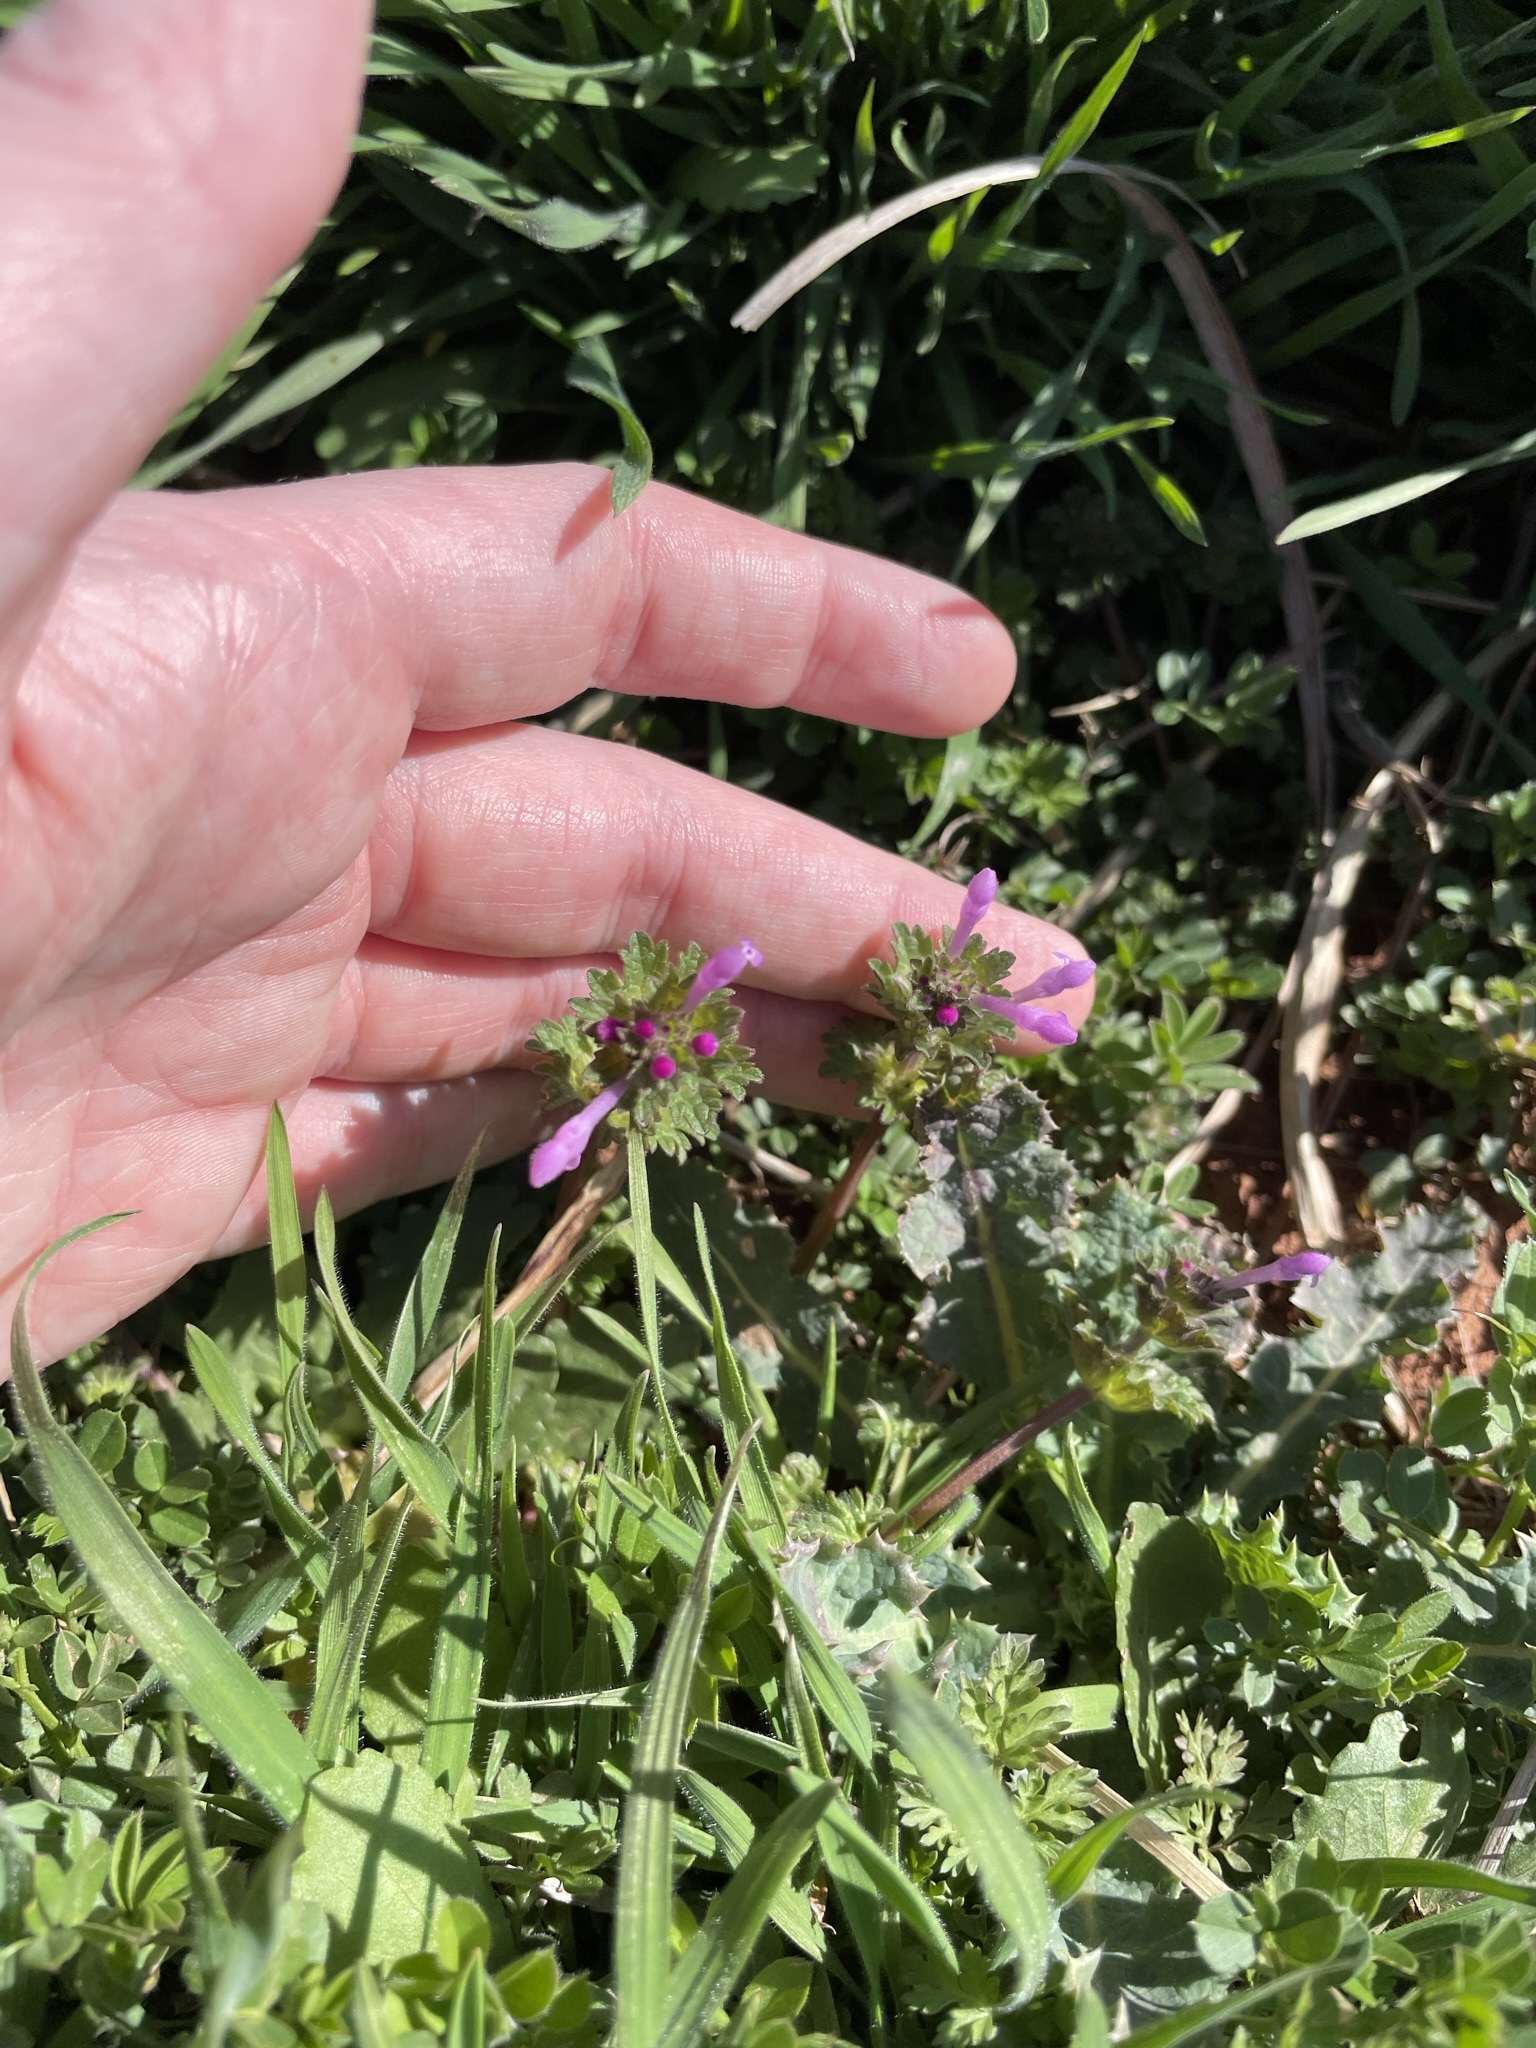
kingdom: Plantae
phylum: Tracheophyta
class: Magnoliopsida
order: Lamiales
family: Lamiaceae
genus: Lamium
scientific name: Lamium amplexicaule
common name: Henbit dead-nettle
